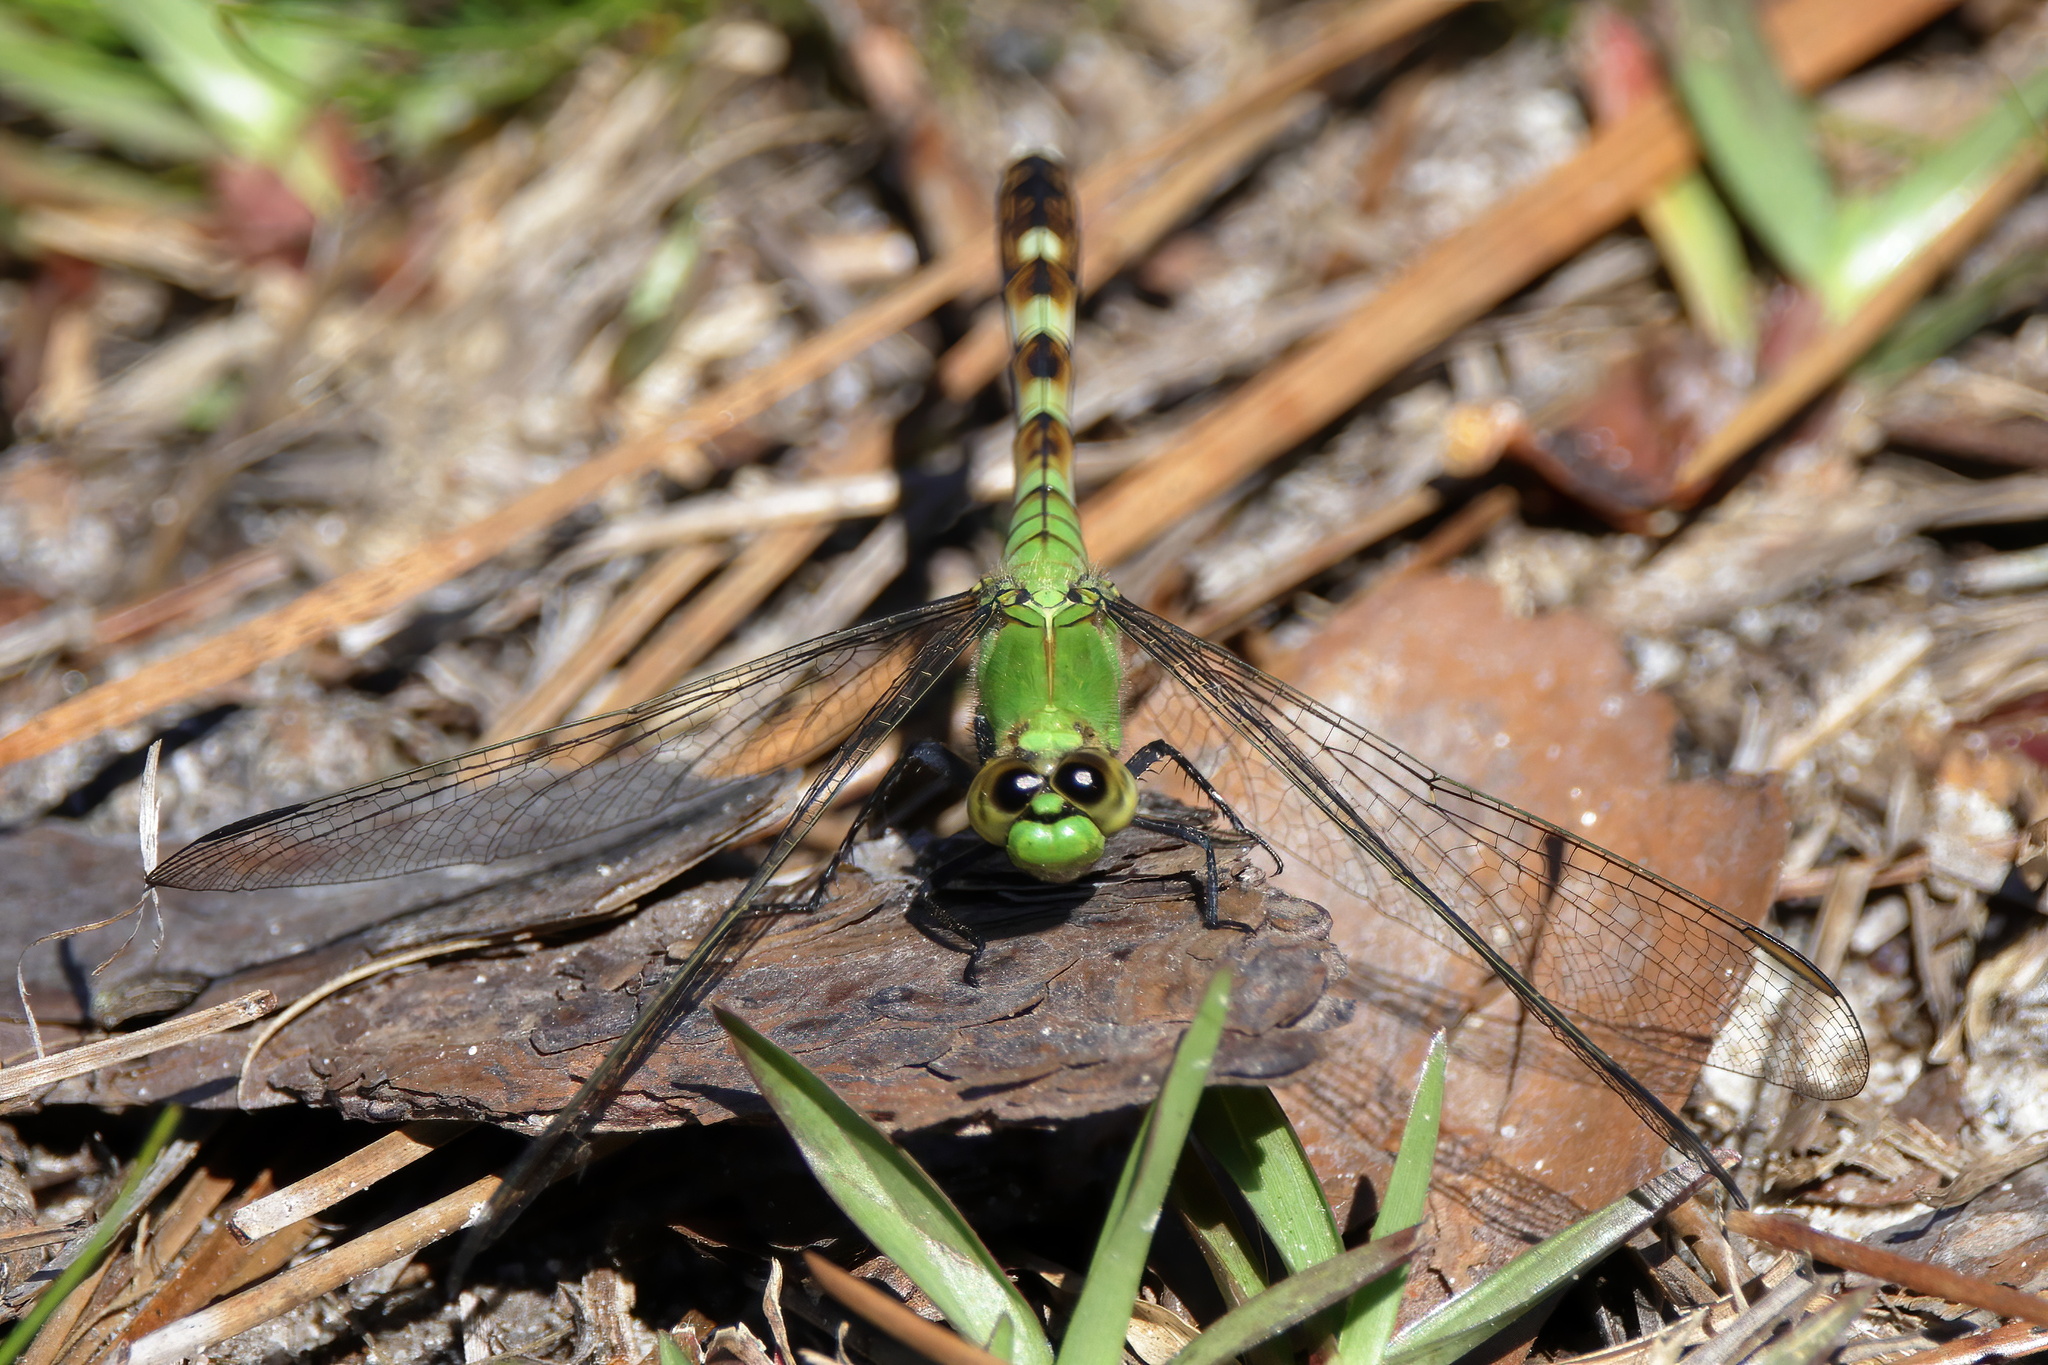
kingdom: Animalia
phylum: Arthropoda
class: Insecta
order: Odonata
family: Libellulidae
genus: Erythemis
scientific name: Erythemis simplicicollis
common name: Eastern pondhawk
